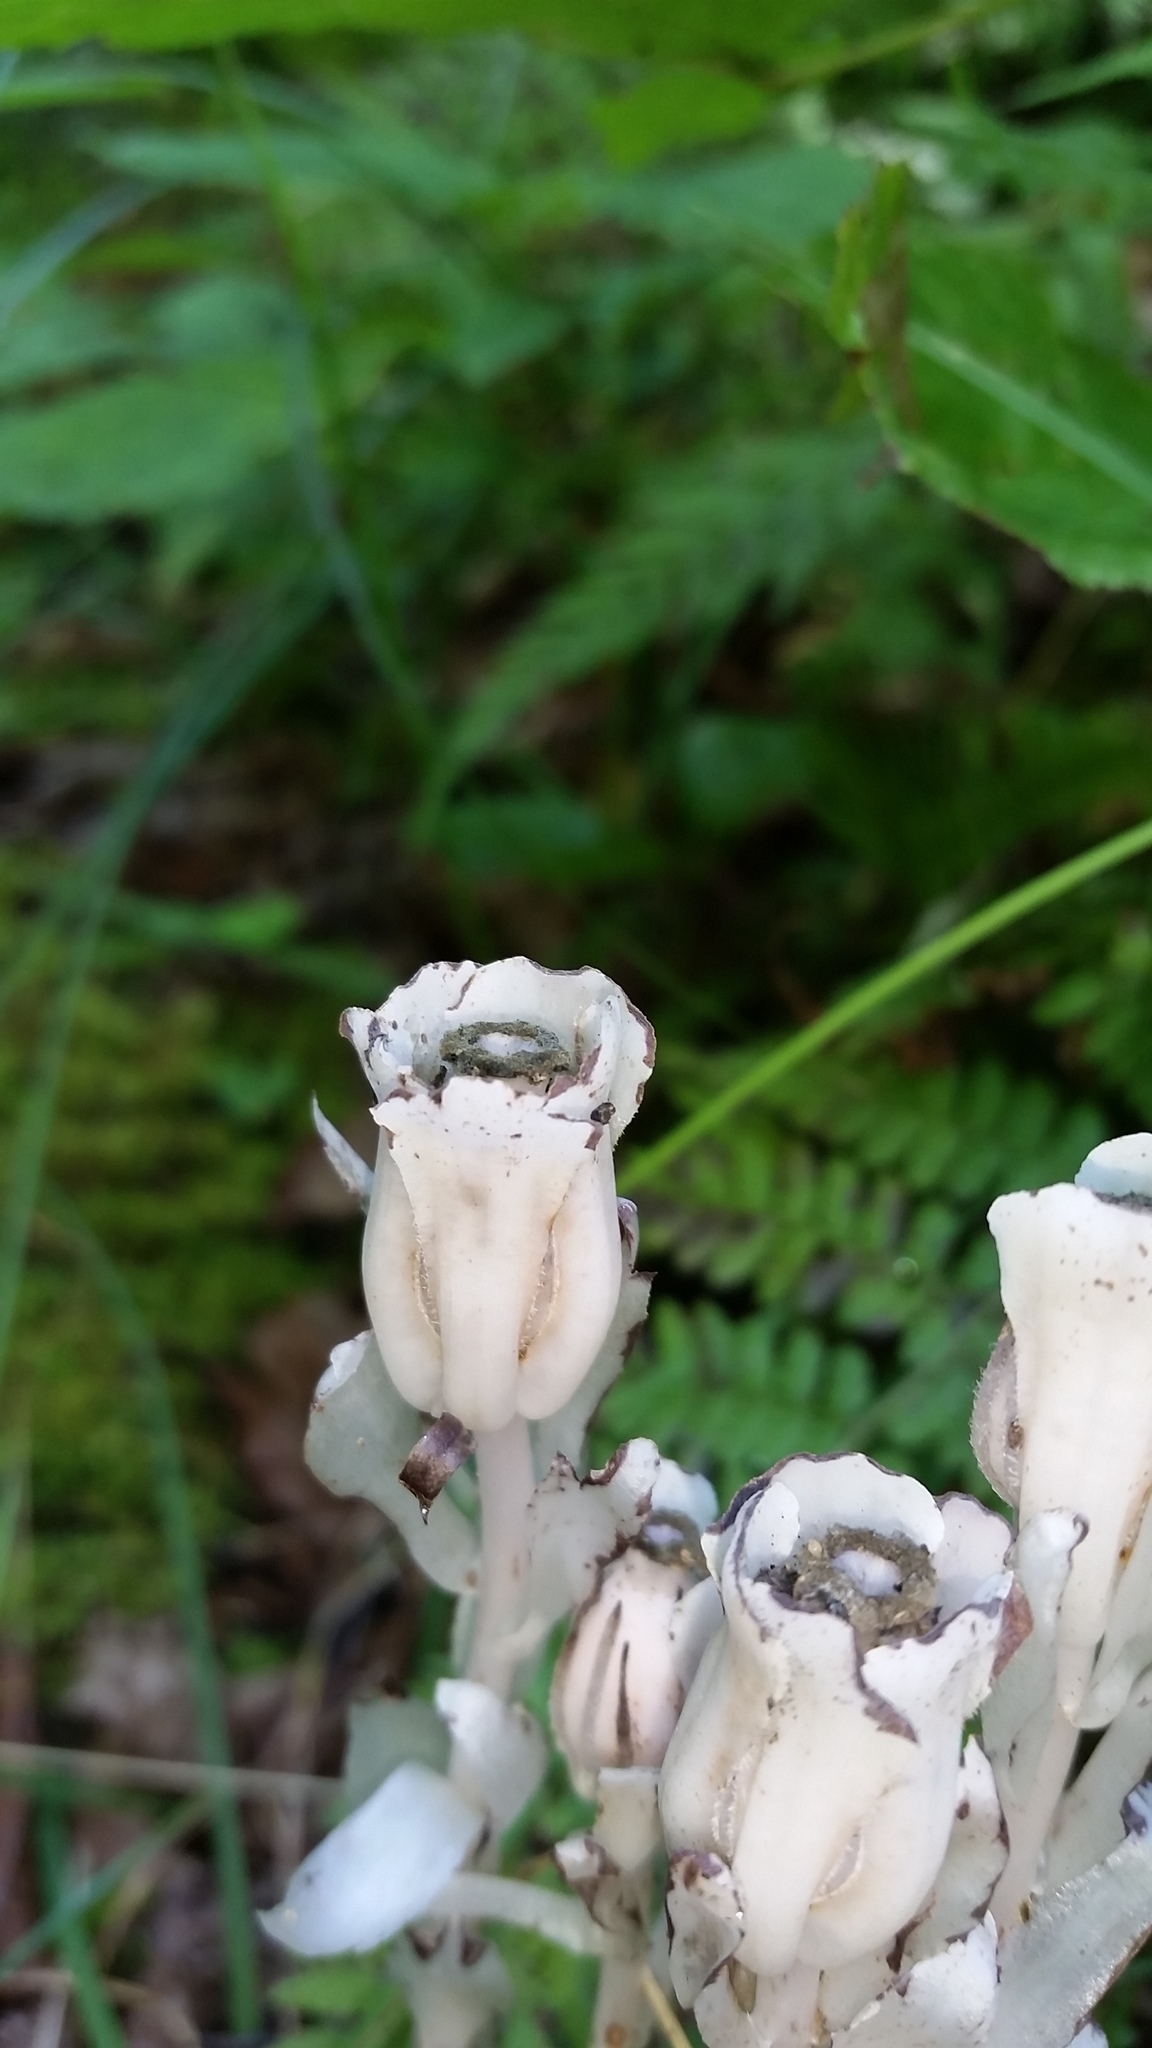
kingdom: Plantae
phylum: Tracheophyta
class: Magnoliopsida
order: Ericales
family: Ericaceae
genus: Monotropa
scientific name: Monotropa uniflora
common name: Convulsion root
